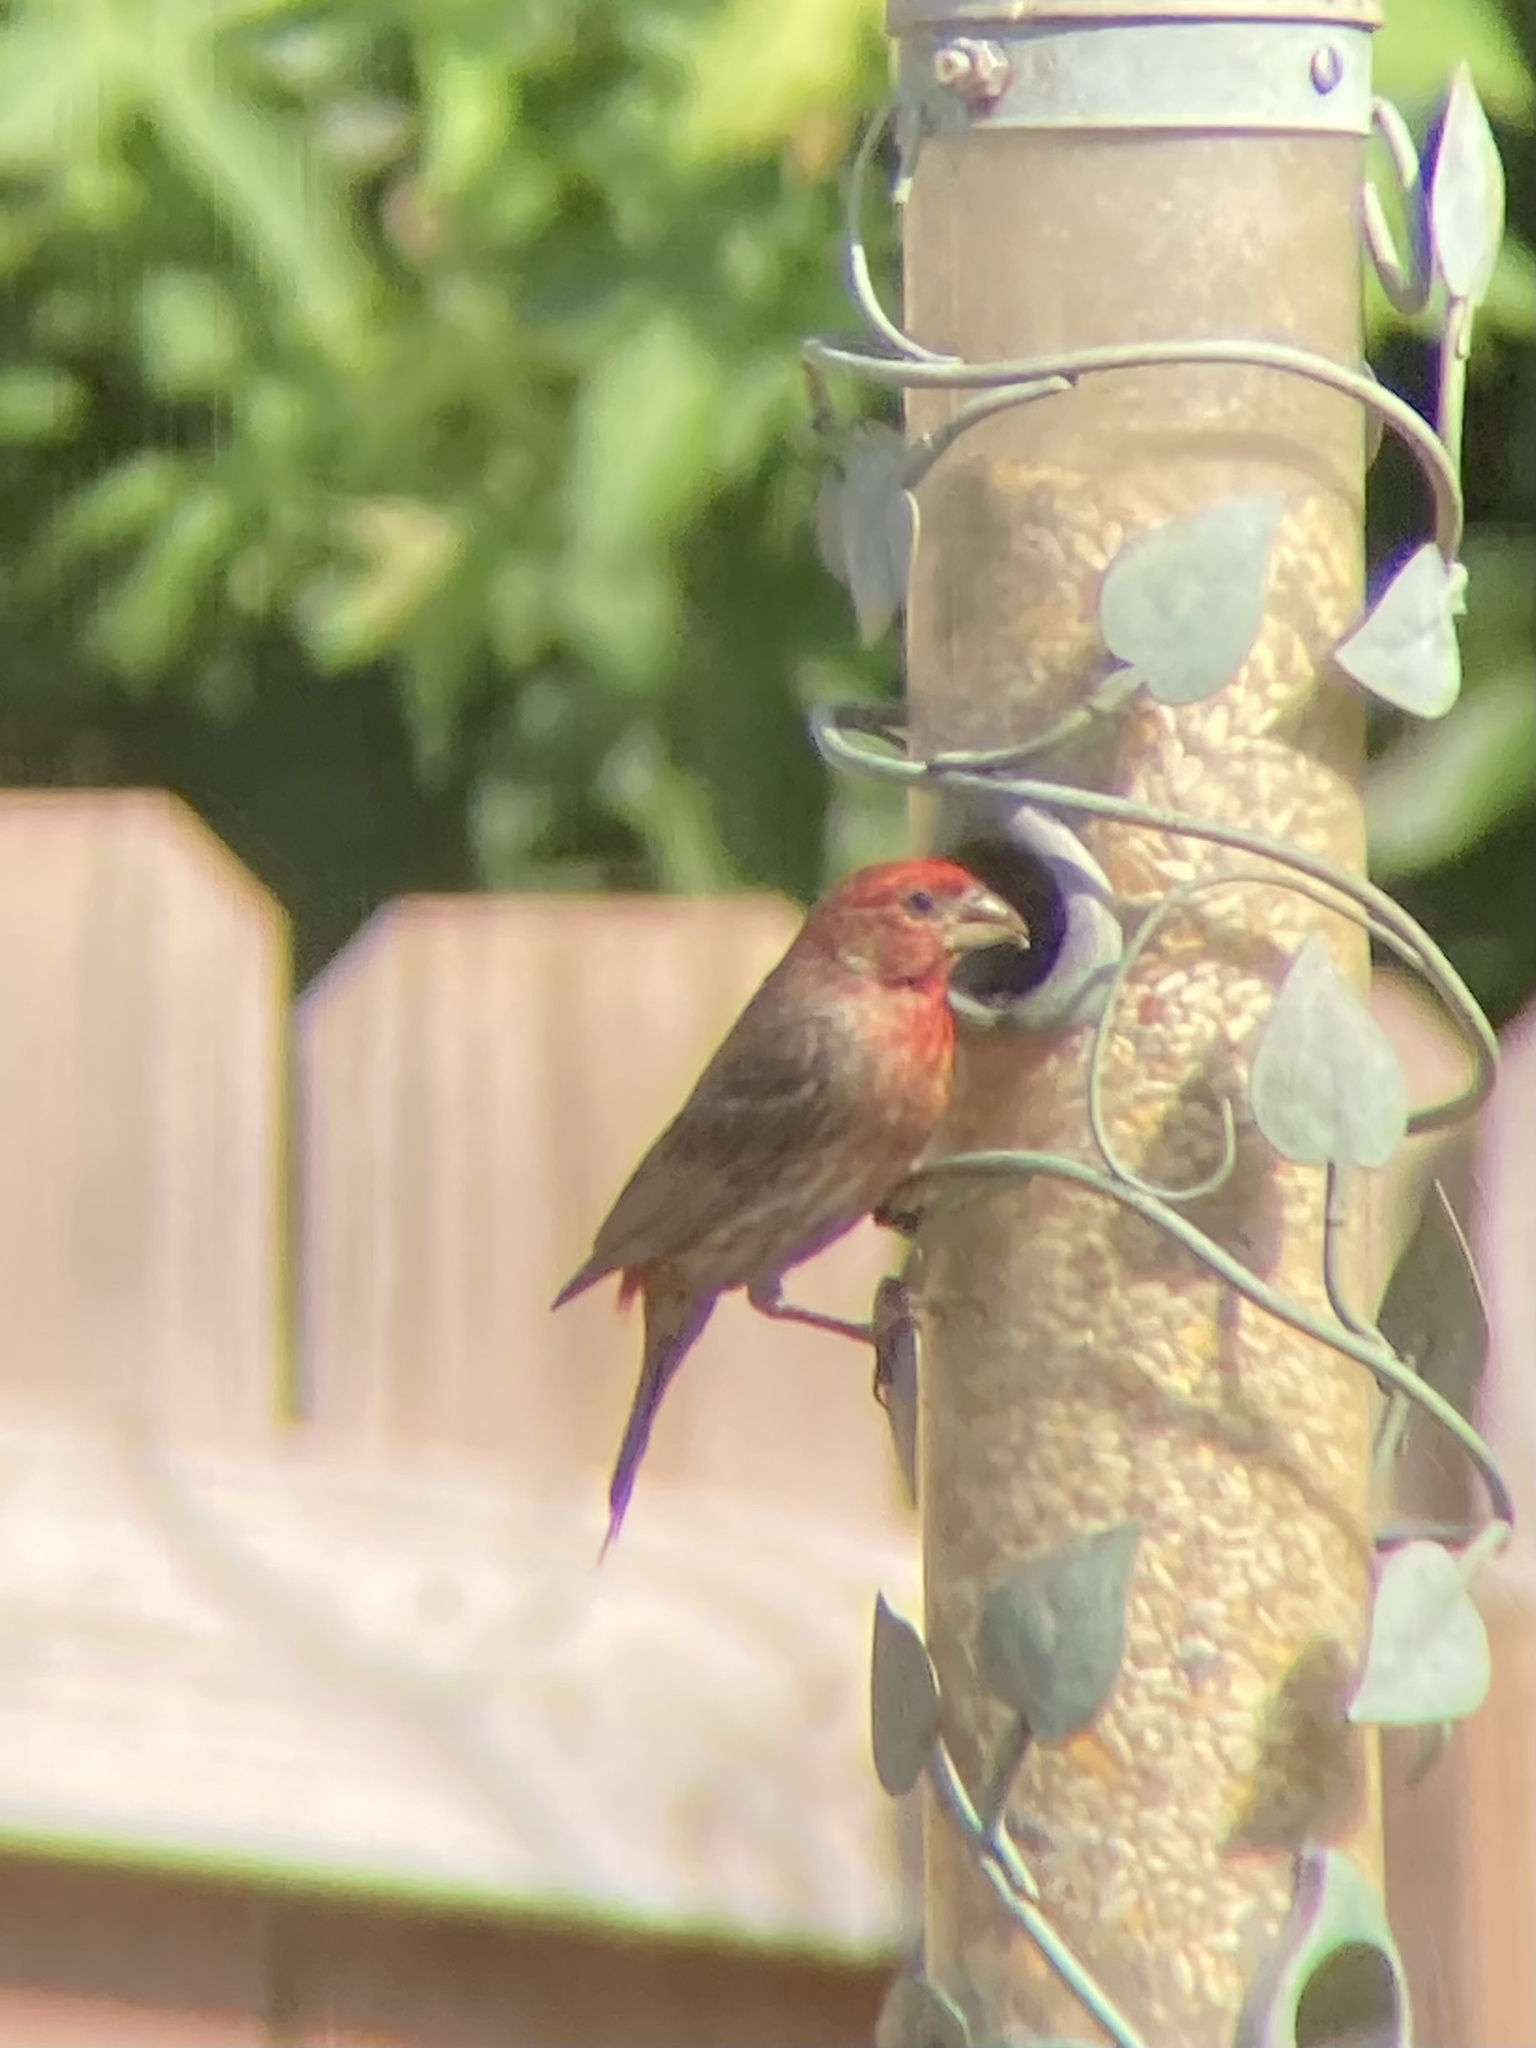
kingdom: Animalia
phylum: Chordata
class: Aves
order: Passeriformes
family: Fringillidae
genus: Haemorhous
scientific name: Haemorhous mexicanus
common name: House finch
